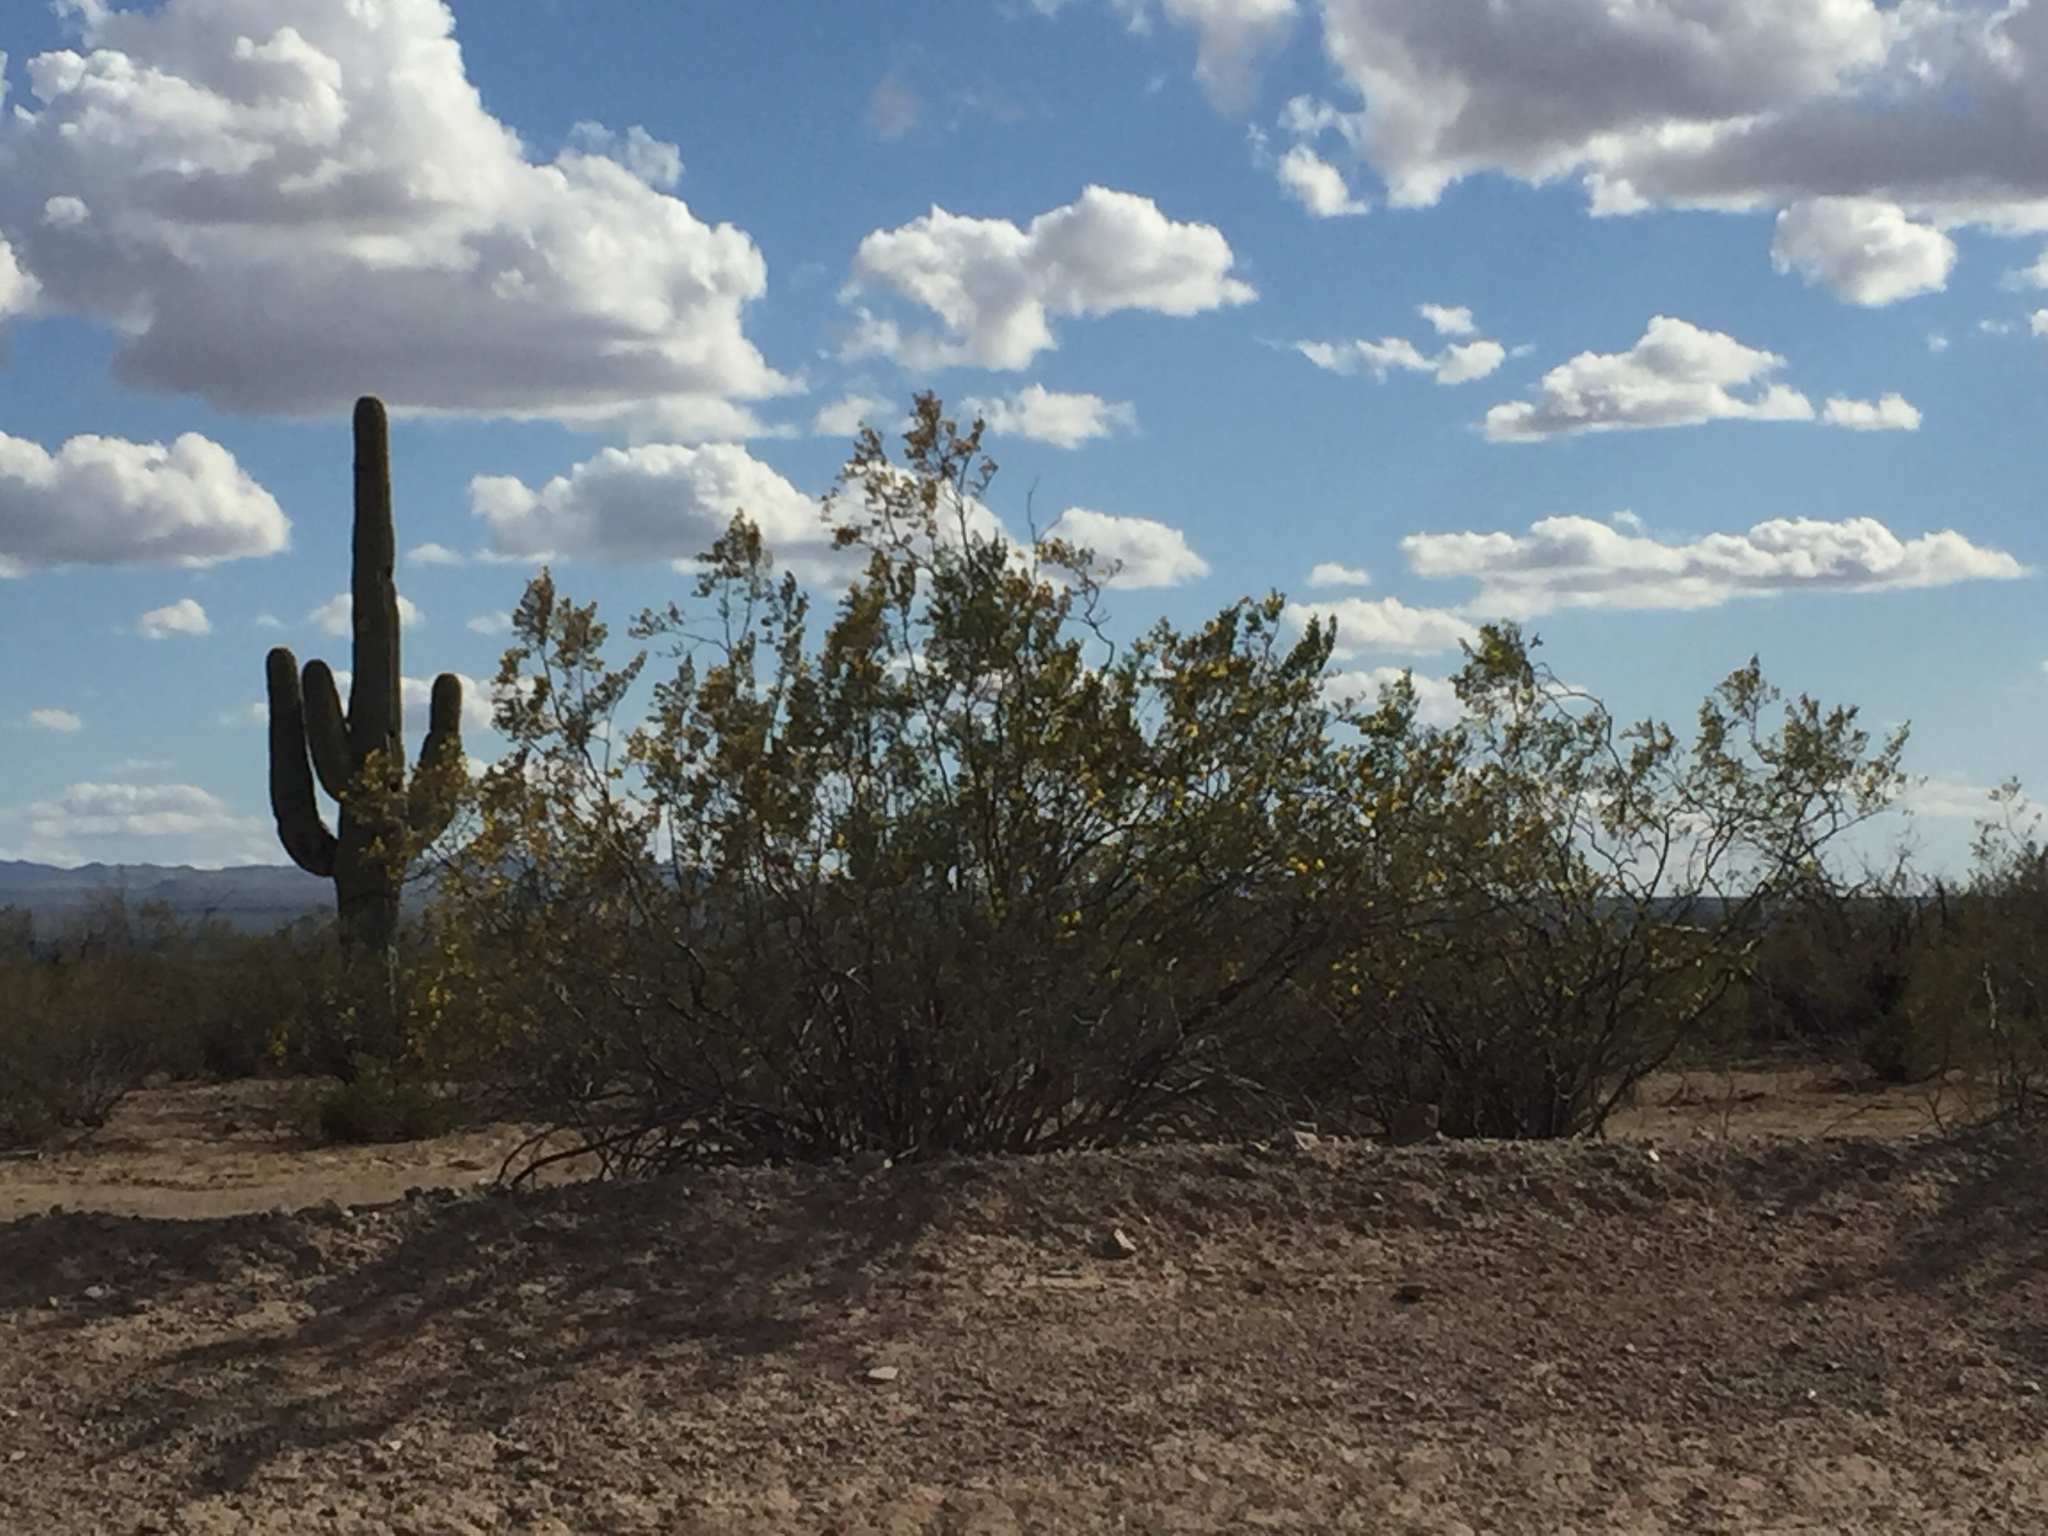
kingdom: Plantae
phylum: Tracheophyta
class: Magnoliopsida
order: Zygophyllales
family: Zygophyllaceae
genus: Larrea
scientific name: Larrea tridentata
